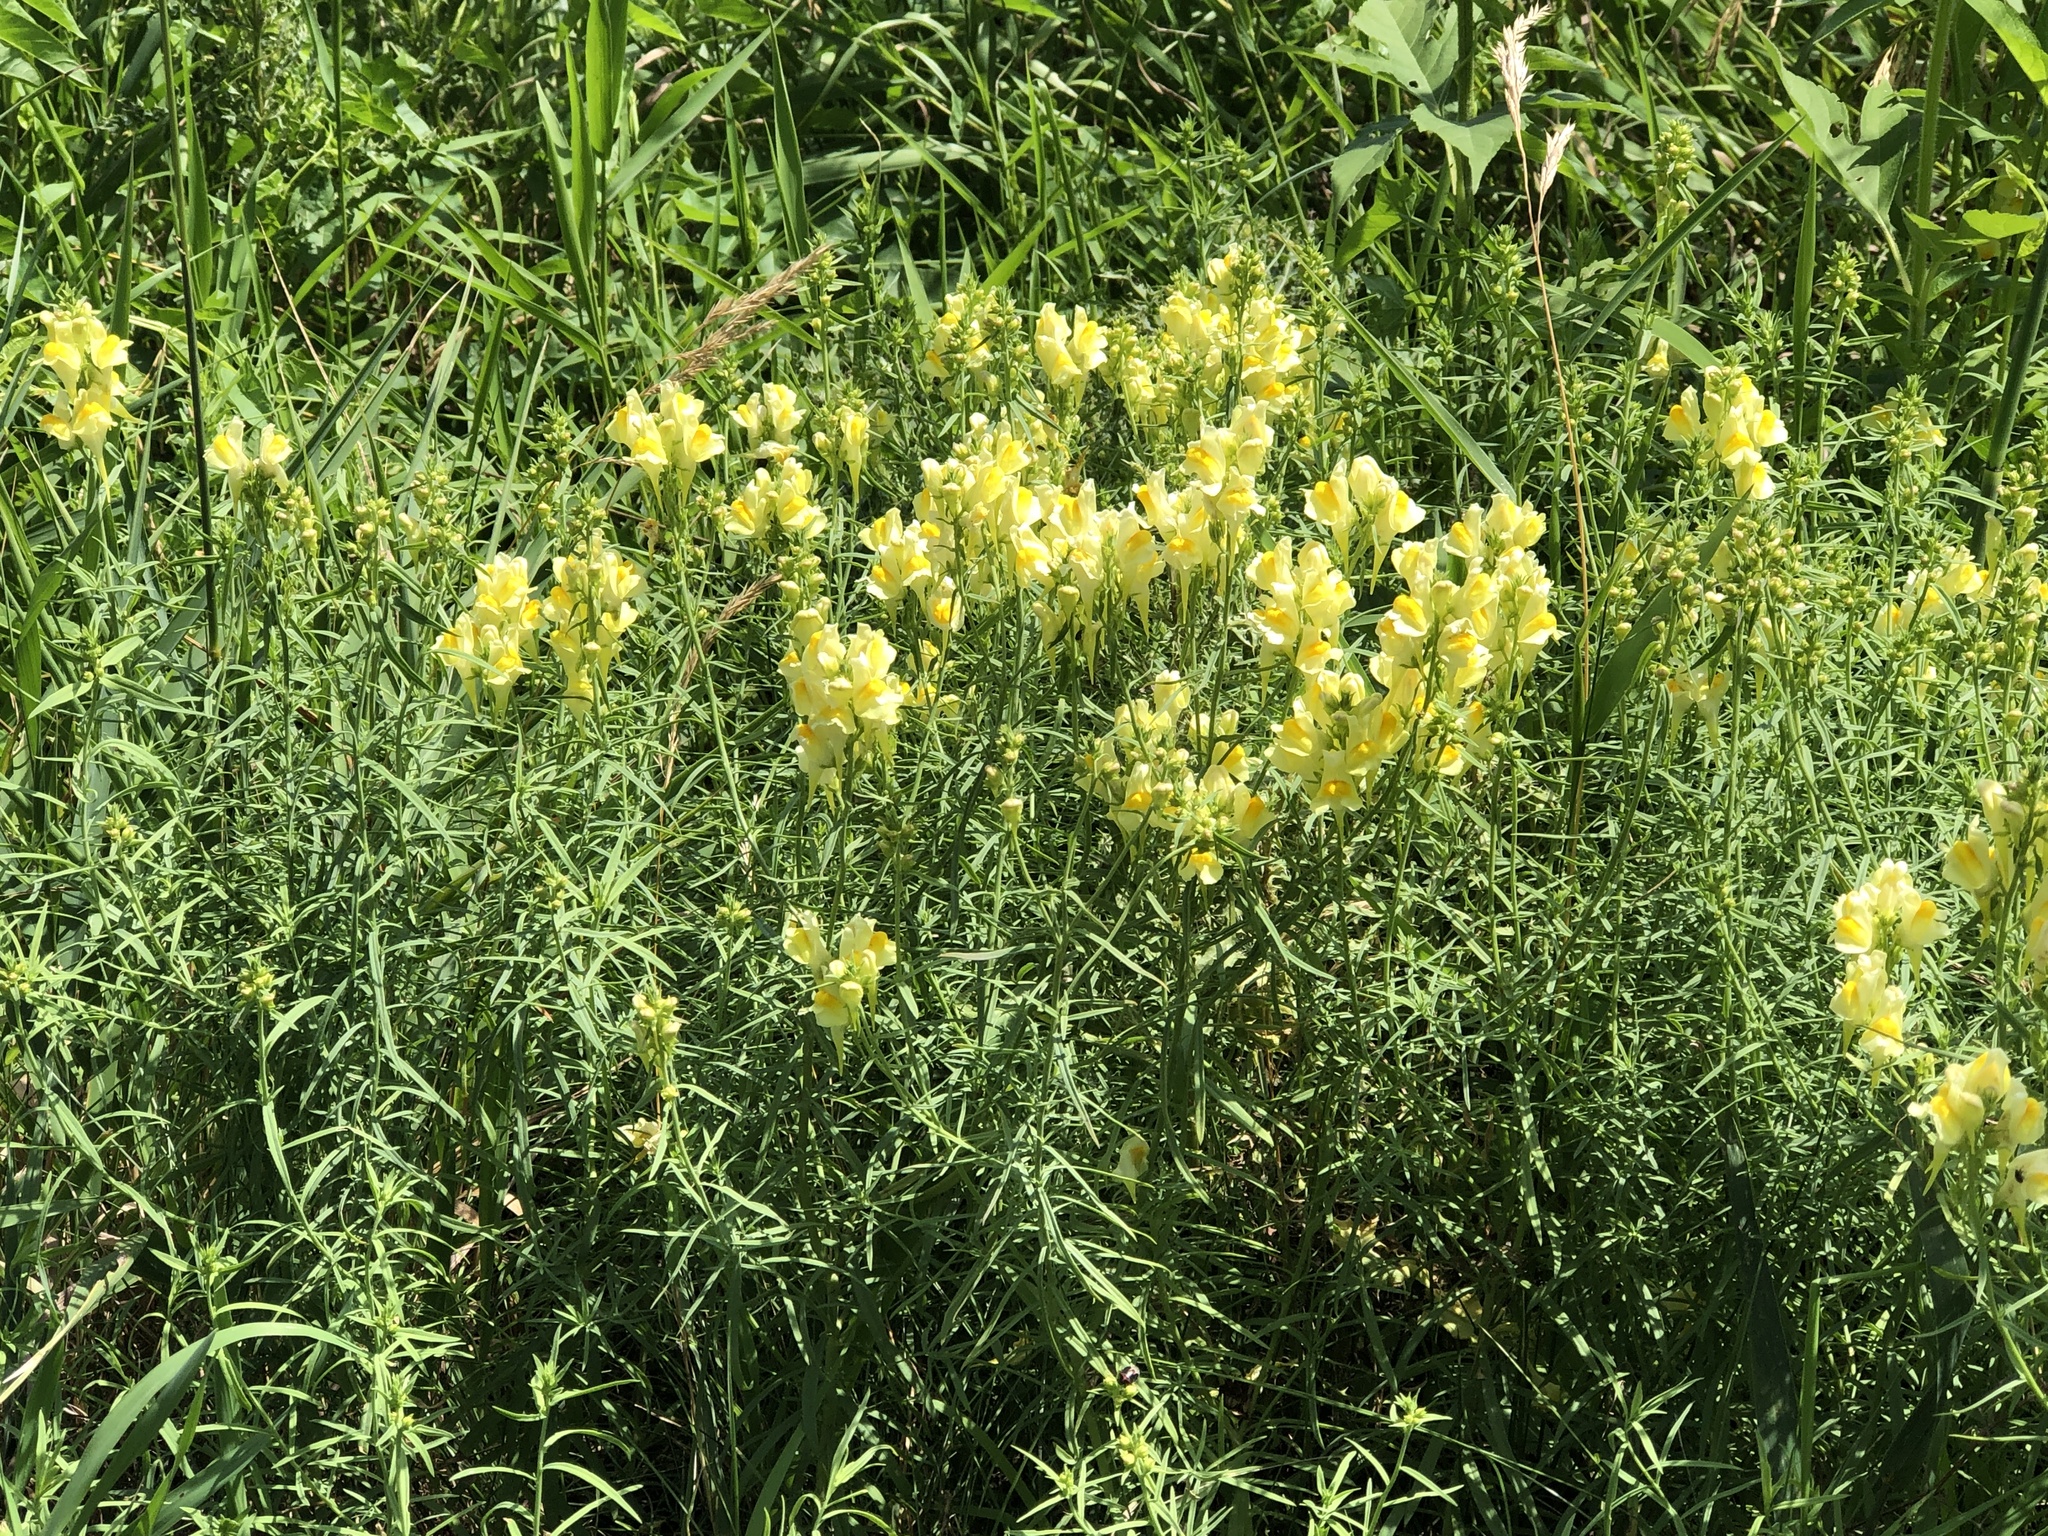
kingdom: Plantae
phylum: Tracheophyta
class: Magnoliopsida
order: Lamiales
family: Plantaginaceae
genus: Linaria
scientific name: Linaria vulgaris
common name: Butter and eggs
